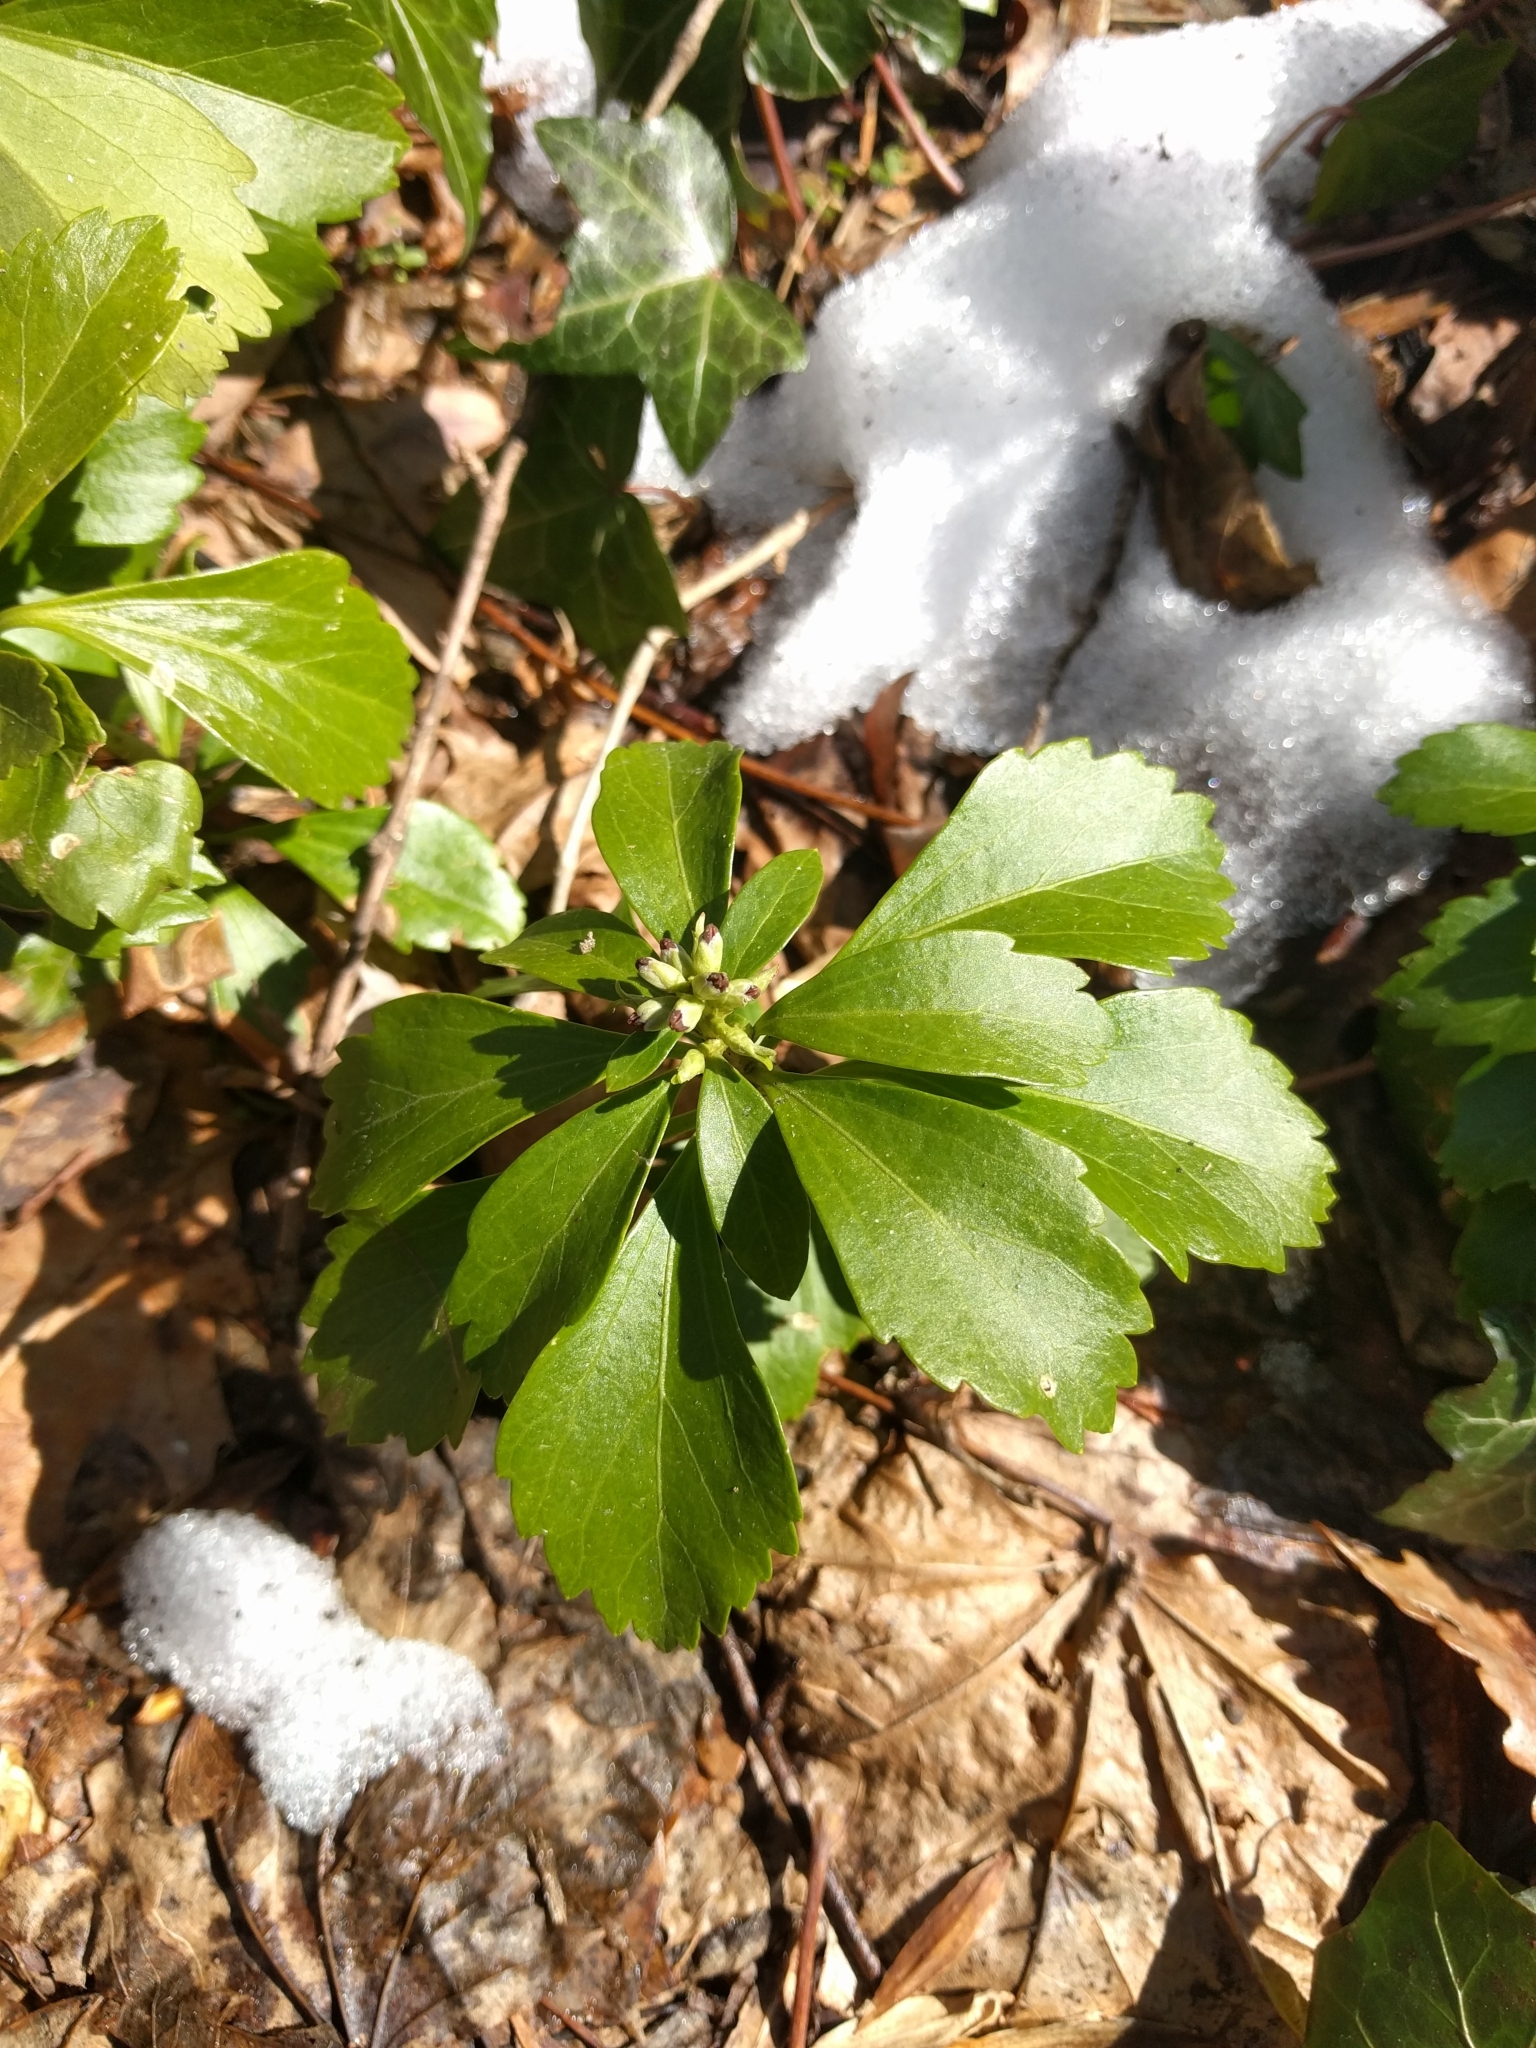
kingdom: Plantae
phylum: Tracheophyta
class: Magnoliopsida
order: Buxales
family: Buxaceae
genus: Pachysandra
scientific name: Pachysandra terminalis
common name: Japanese pachysandra
